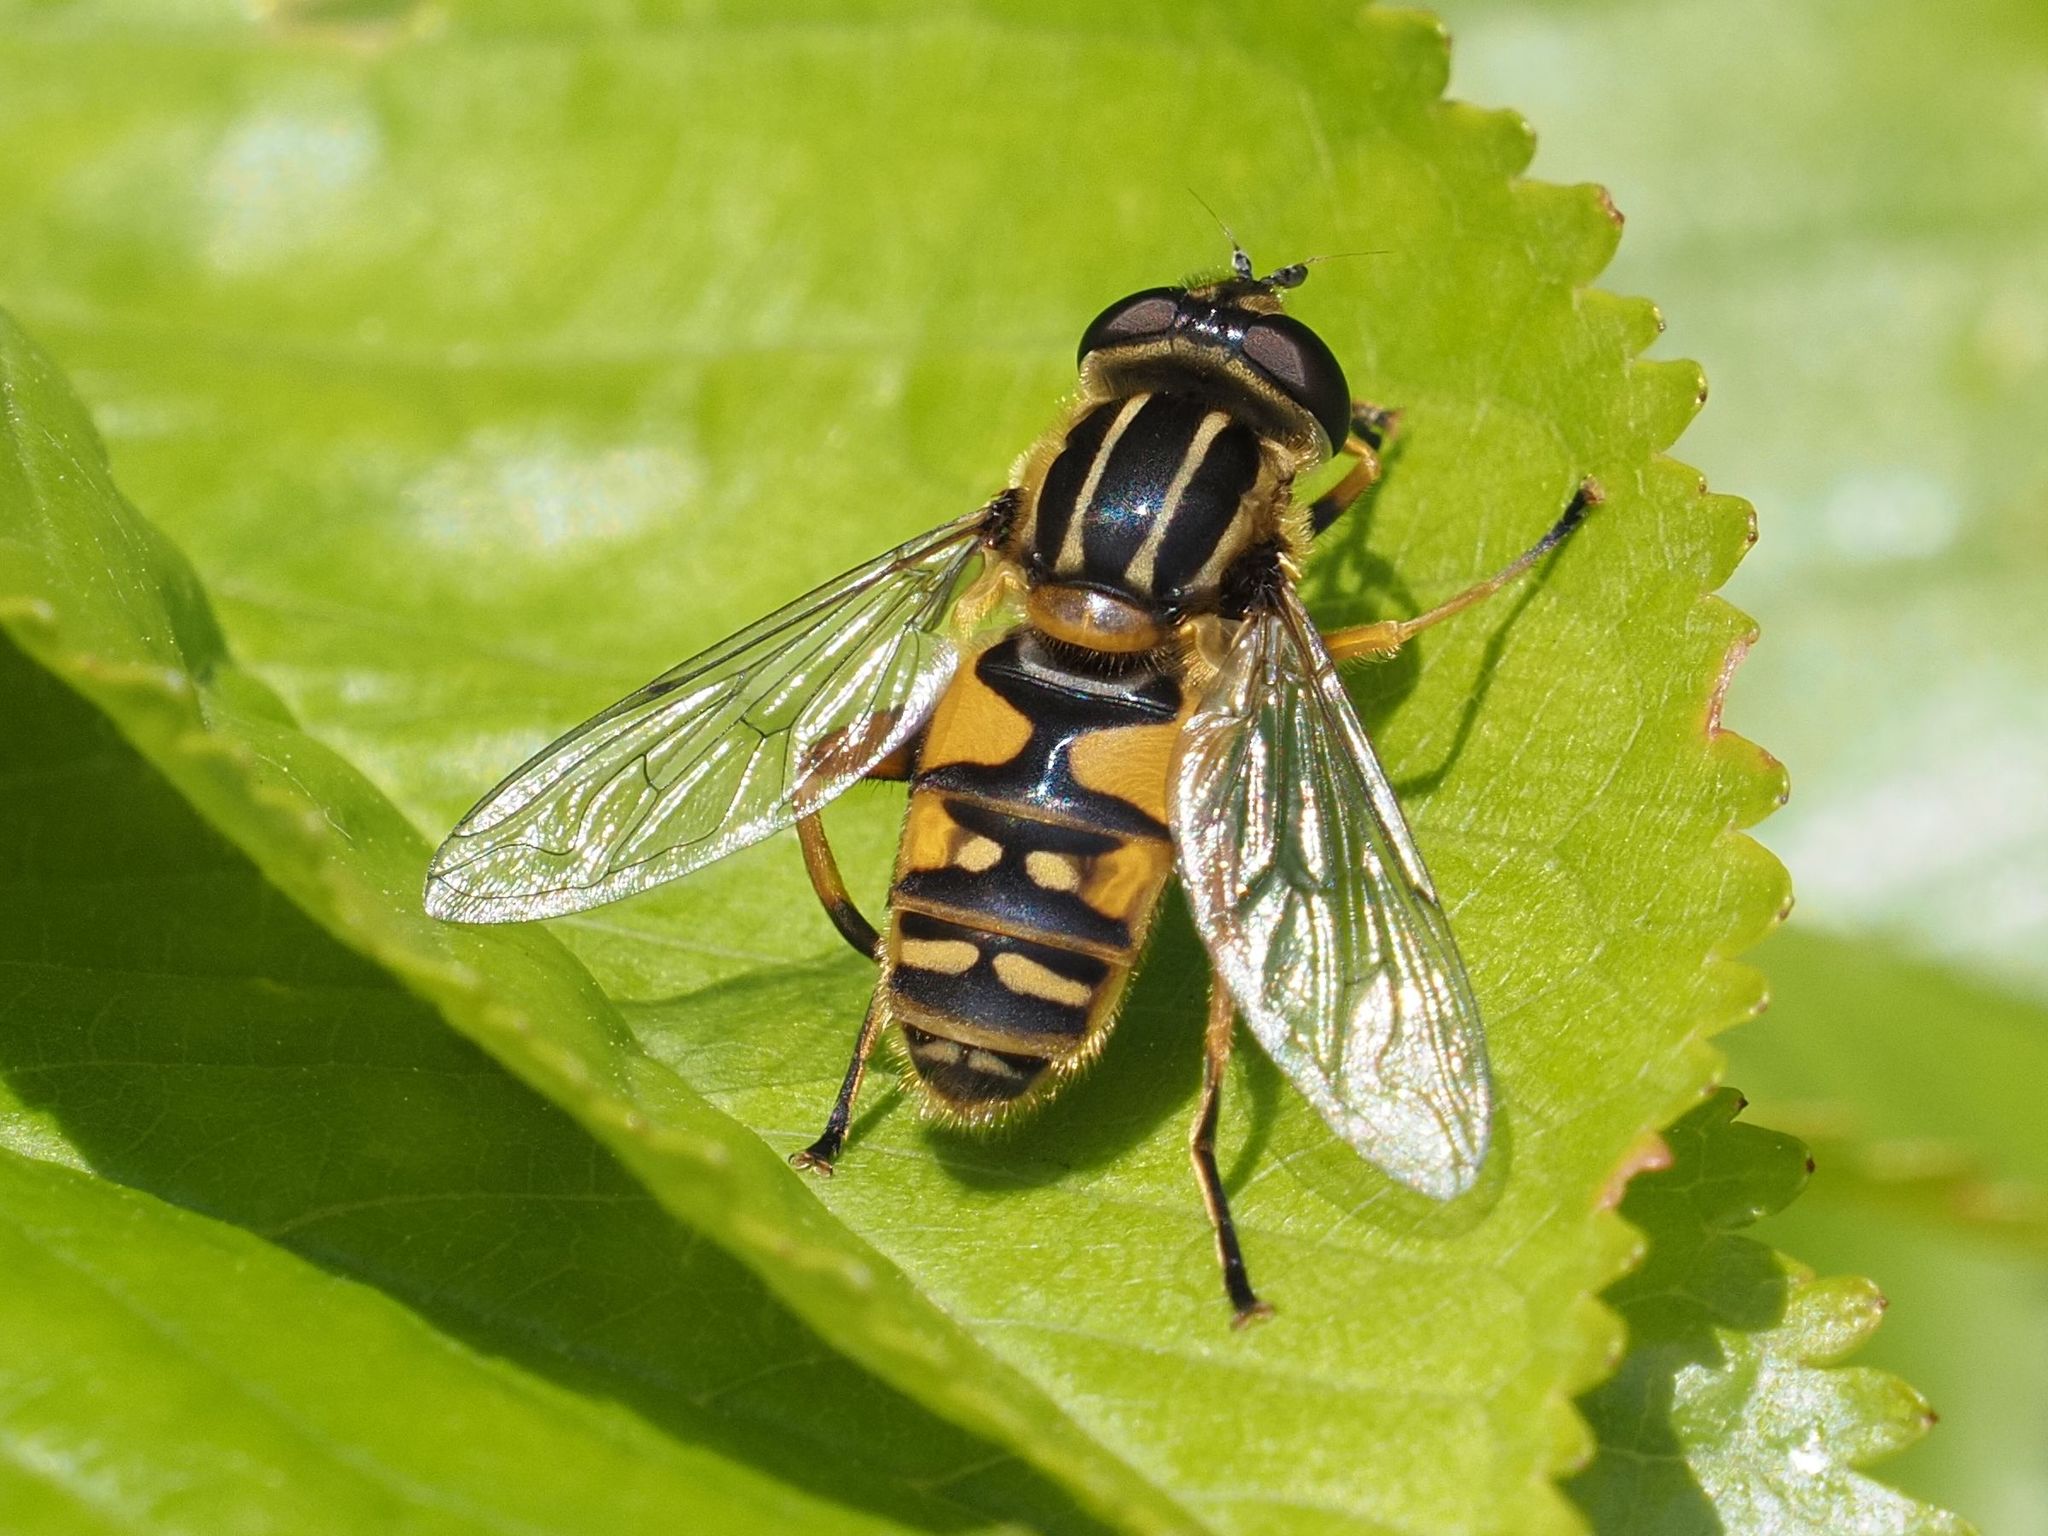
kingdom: Animalia
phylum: Arthropoda
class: Insecta
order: Diptera
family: Syrphidae
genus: Helophilus
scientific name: Helophilus pendulus
